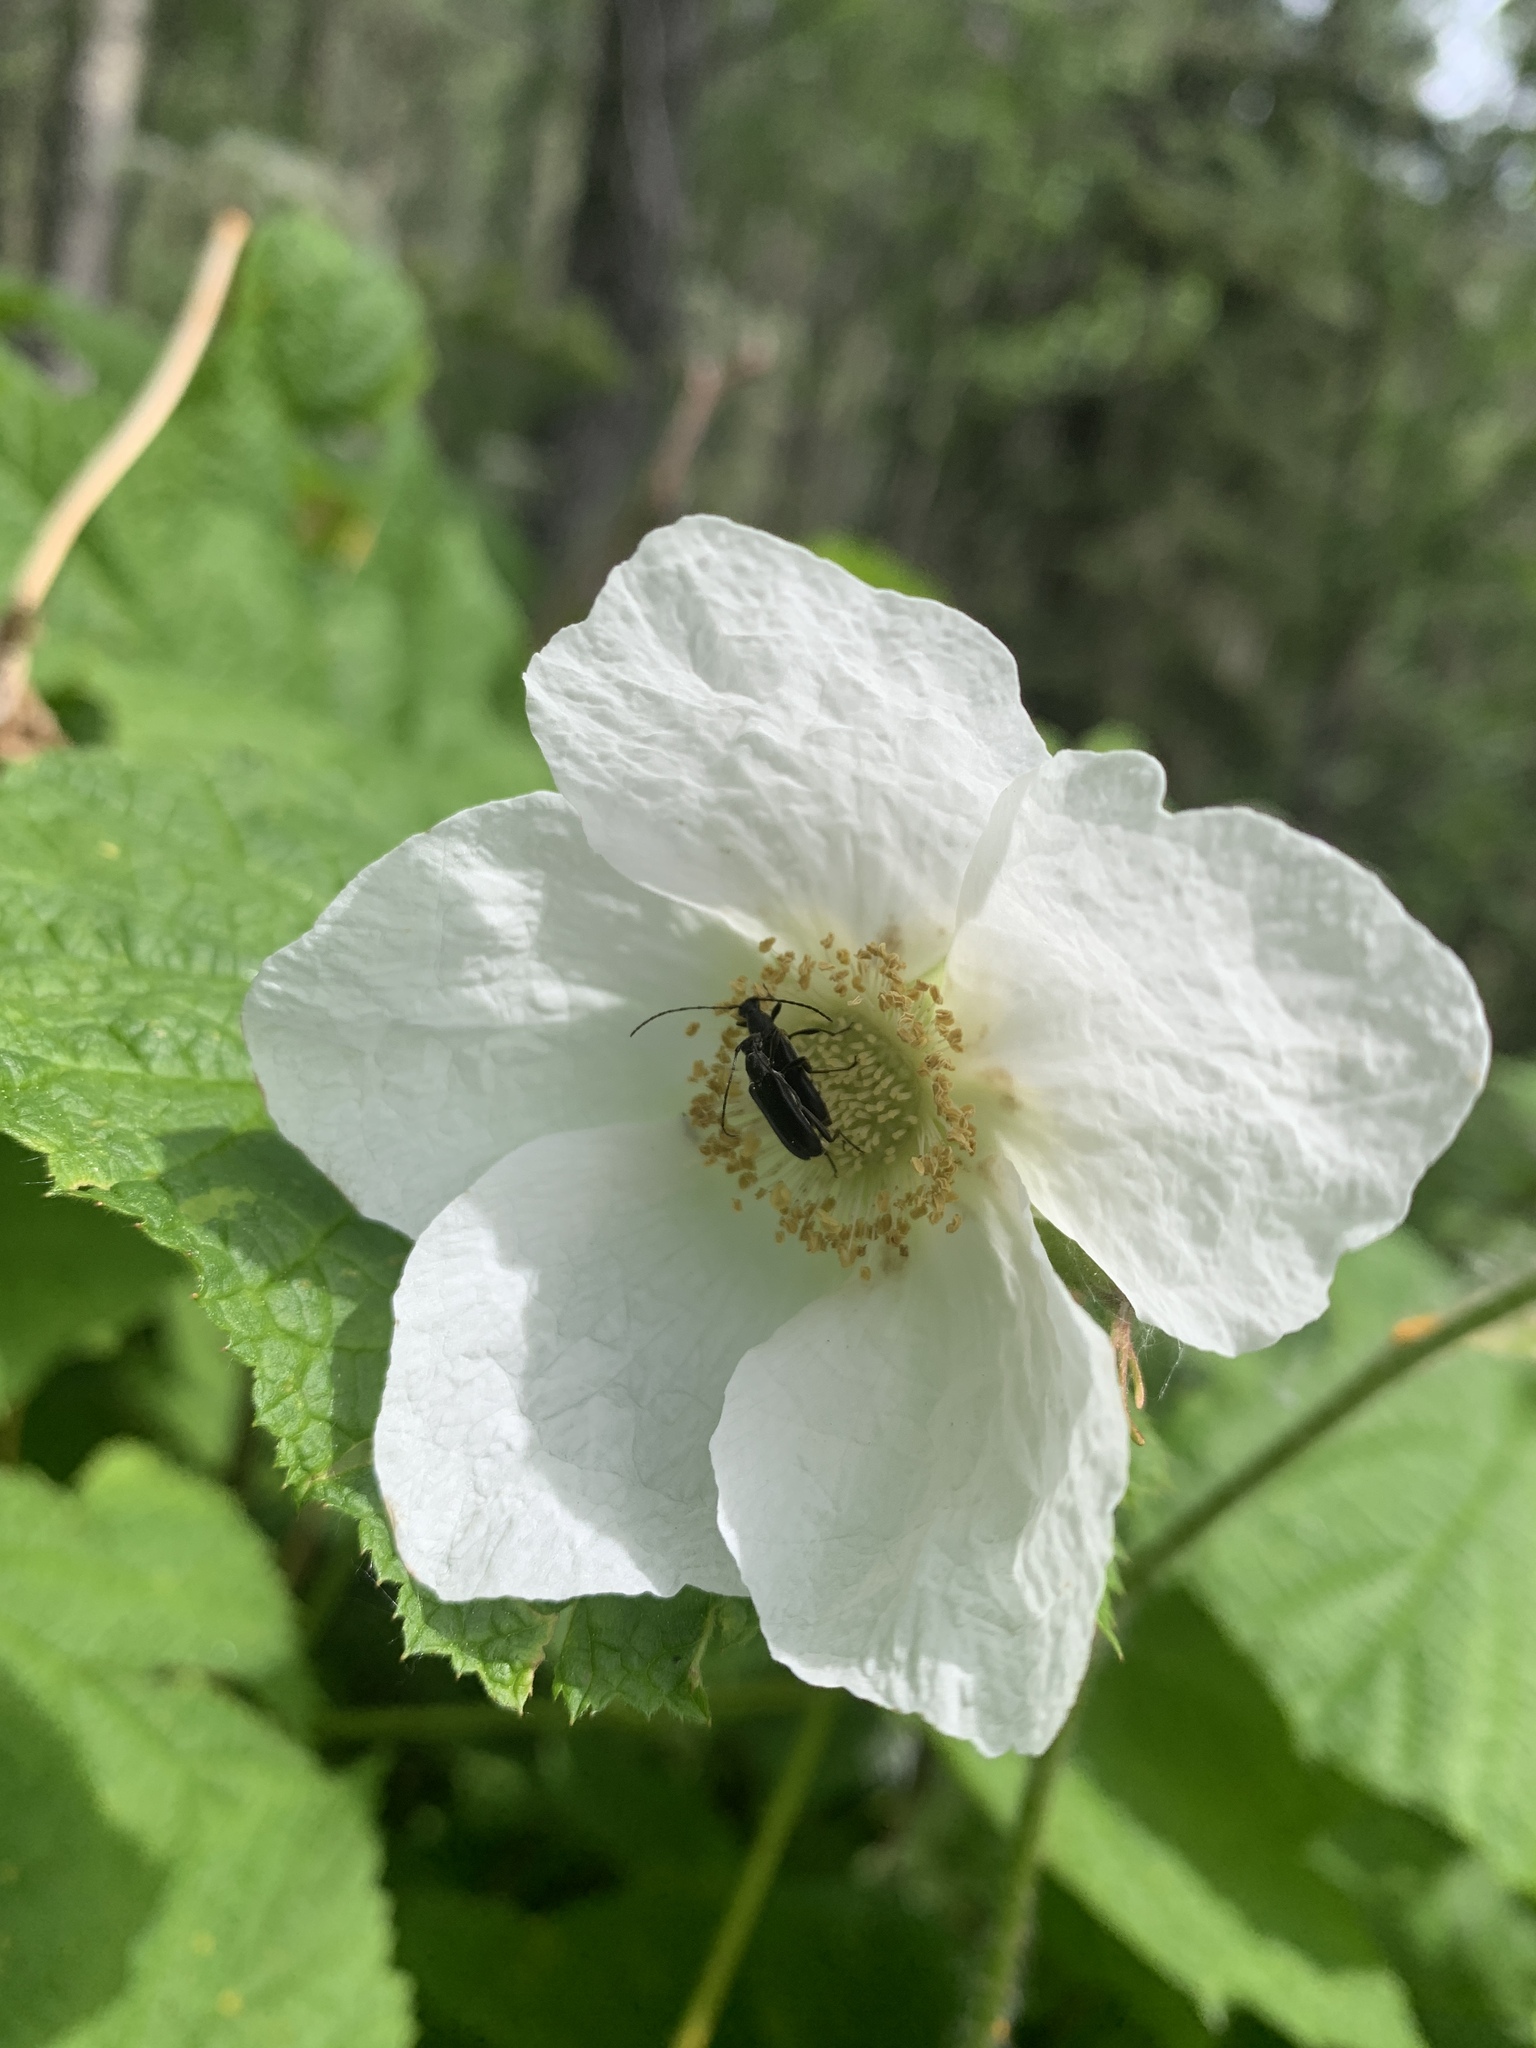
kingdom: Plantae
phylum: Tracheophyta
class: Magnoliopsida
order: Rosales
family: Rosaceae
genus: Rubus
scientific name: Rubus parviflorus
